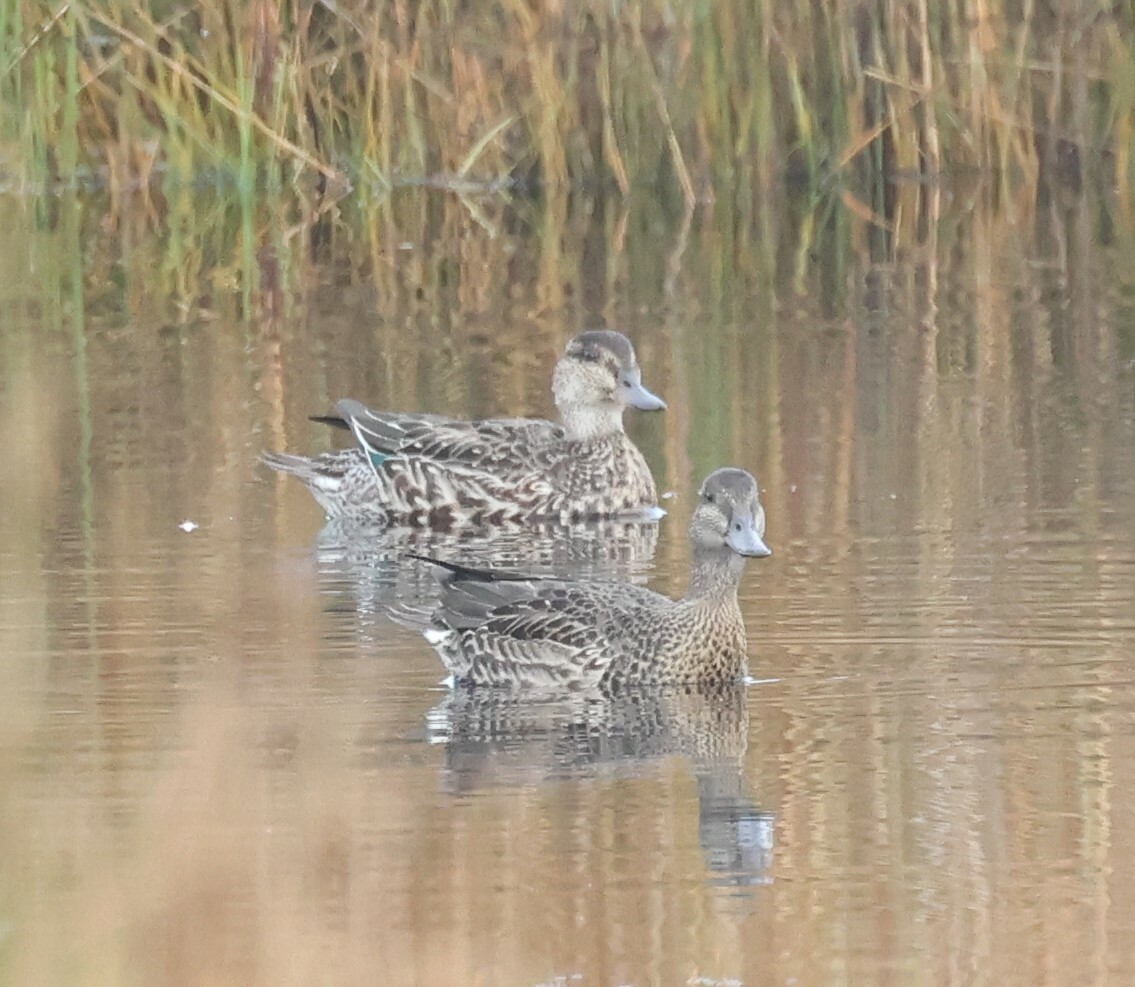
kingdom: Animalia
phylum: Chordata
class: Aves
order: Anseriformes
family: Anatidae
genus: Anas
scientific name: Anas crecca
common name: Eurasian teal
